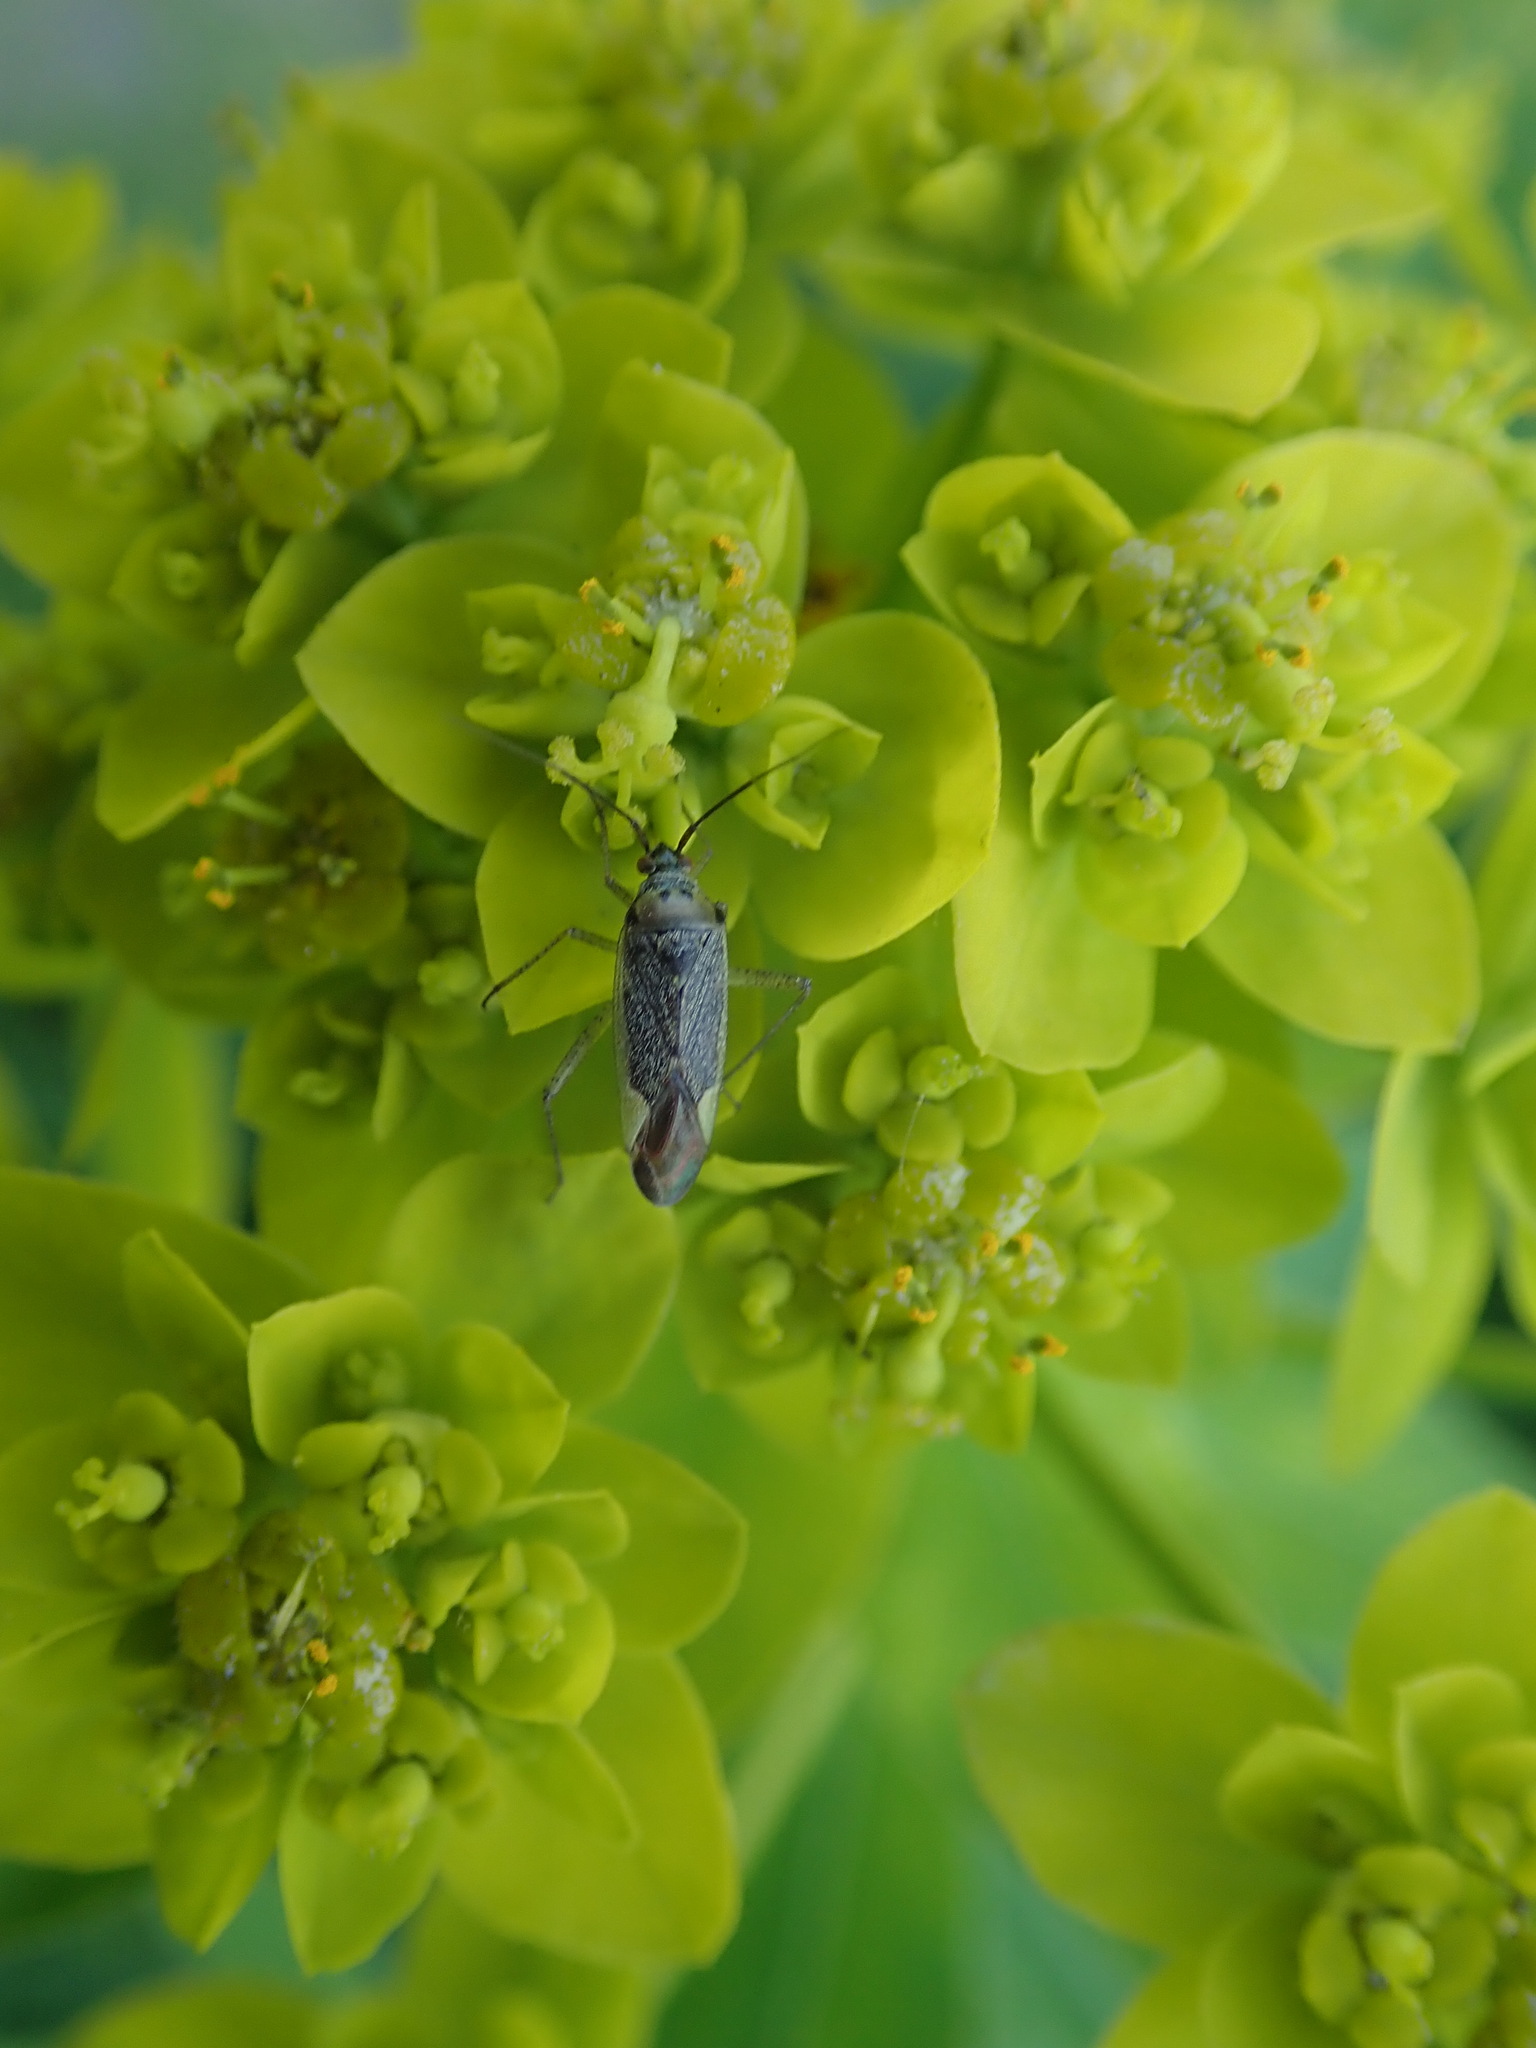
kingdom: Animalia
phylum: Arthropoda
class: Insecta
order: Hemiptera
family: Miridae
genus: Closterotomus
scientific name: Closterotomus trivialis
